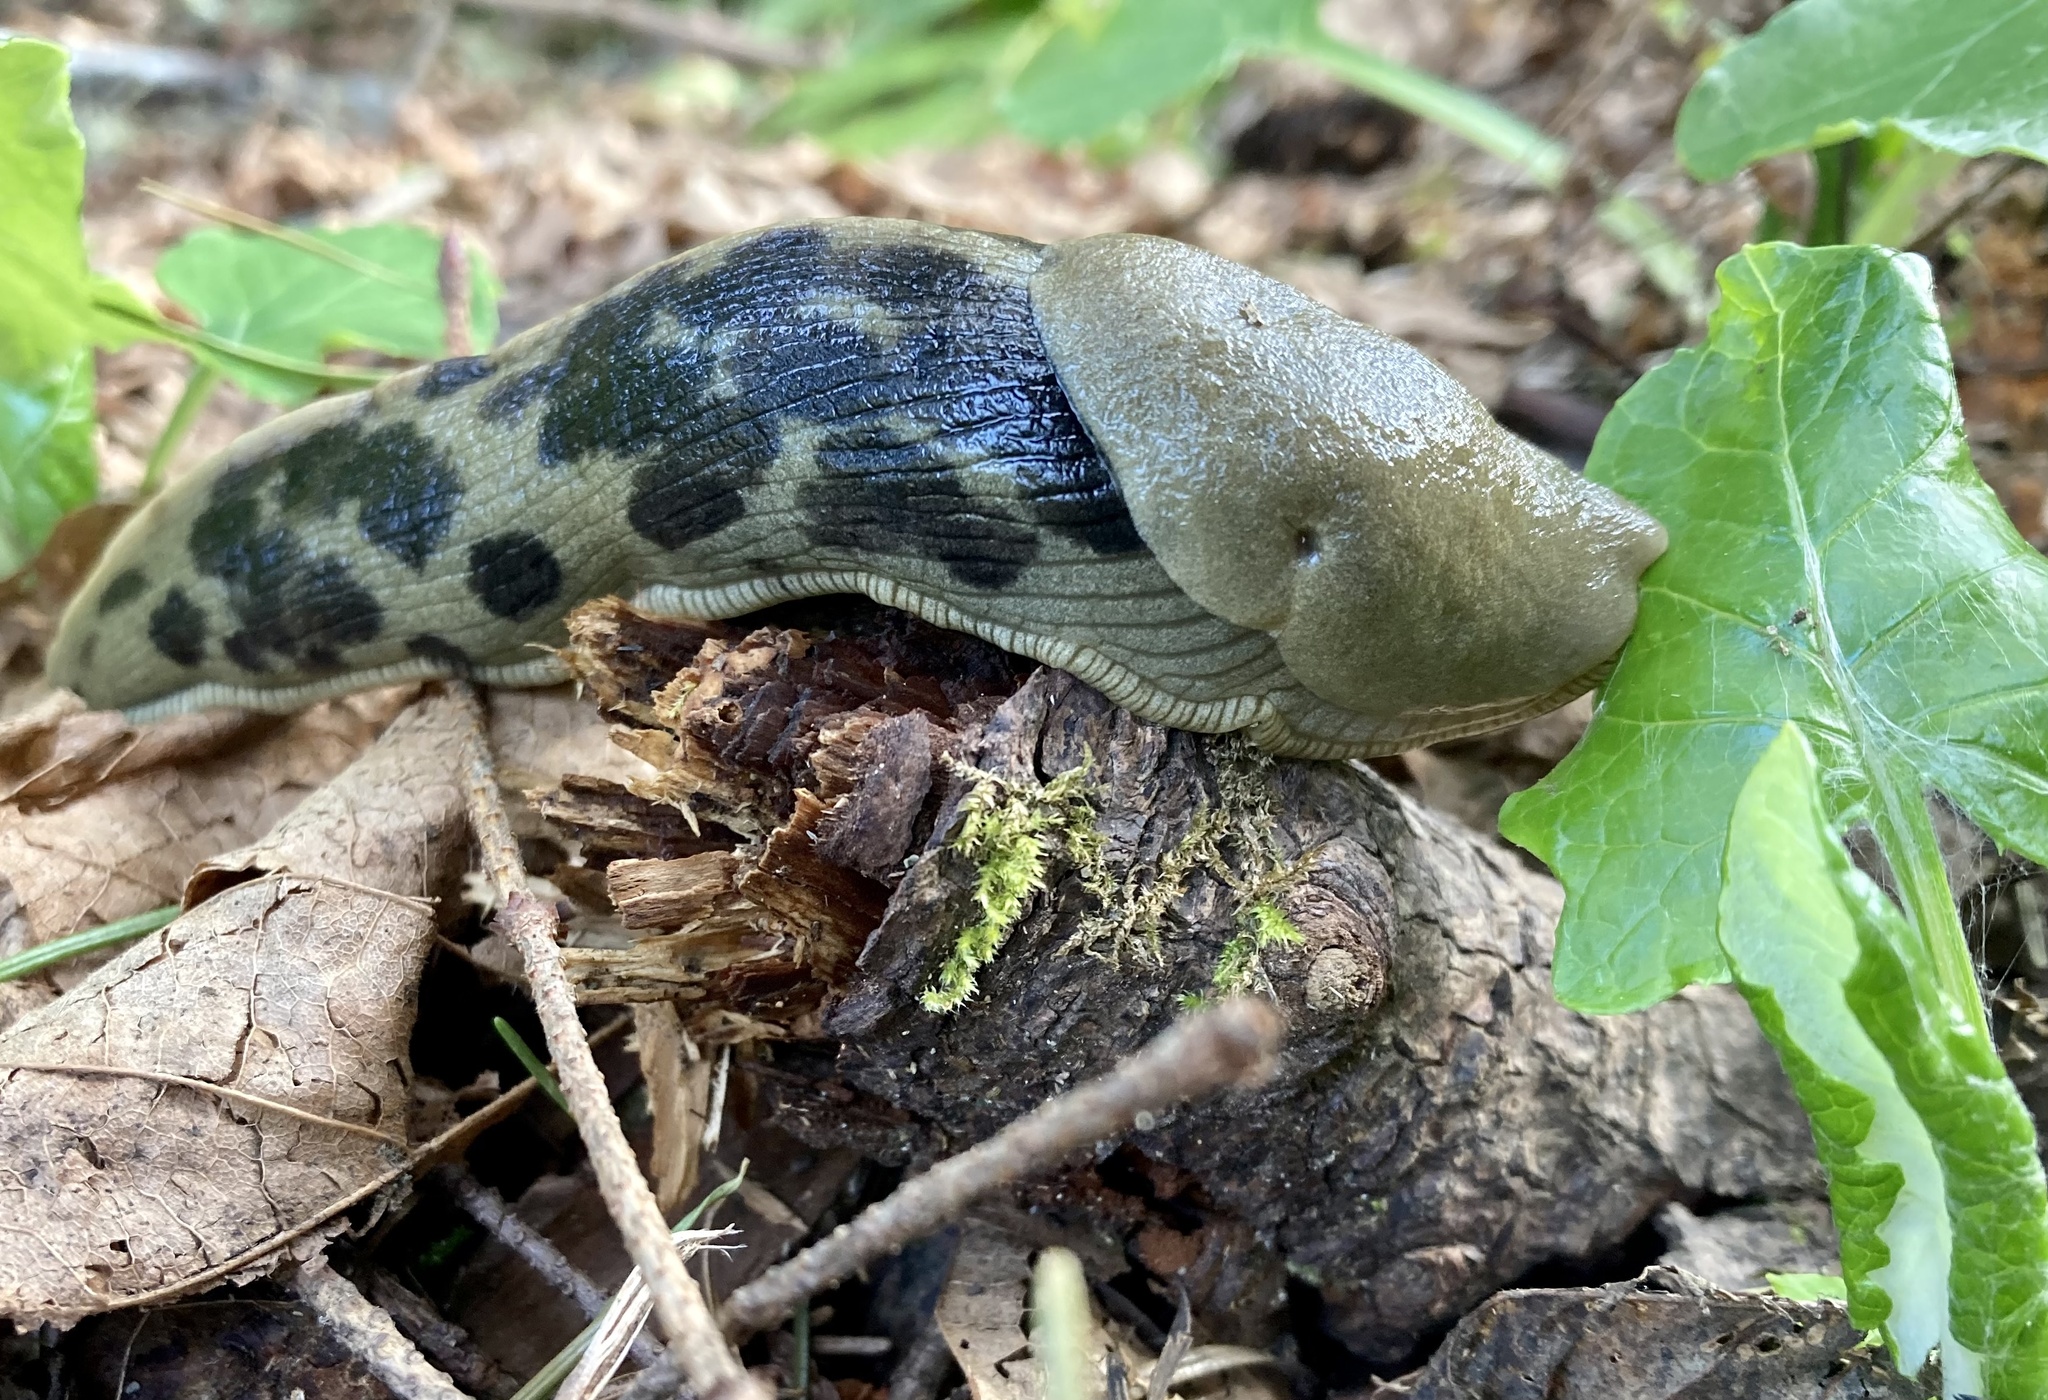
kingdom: Animalia
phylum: Mollusca
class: Gastropoda
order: Stylommatophora
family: Ariolimacidae
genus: Ariolimax
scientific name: Ariolimax columbianus
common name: Pacific banana slug
